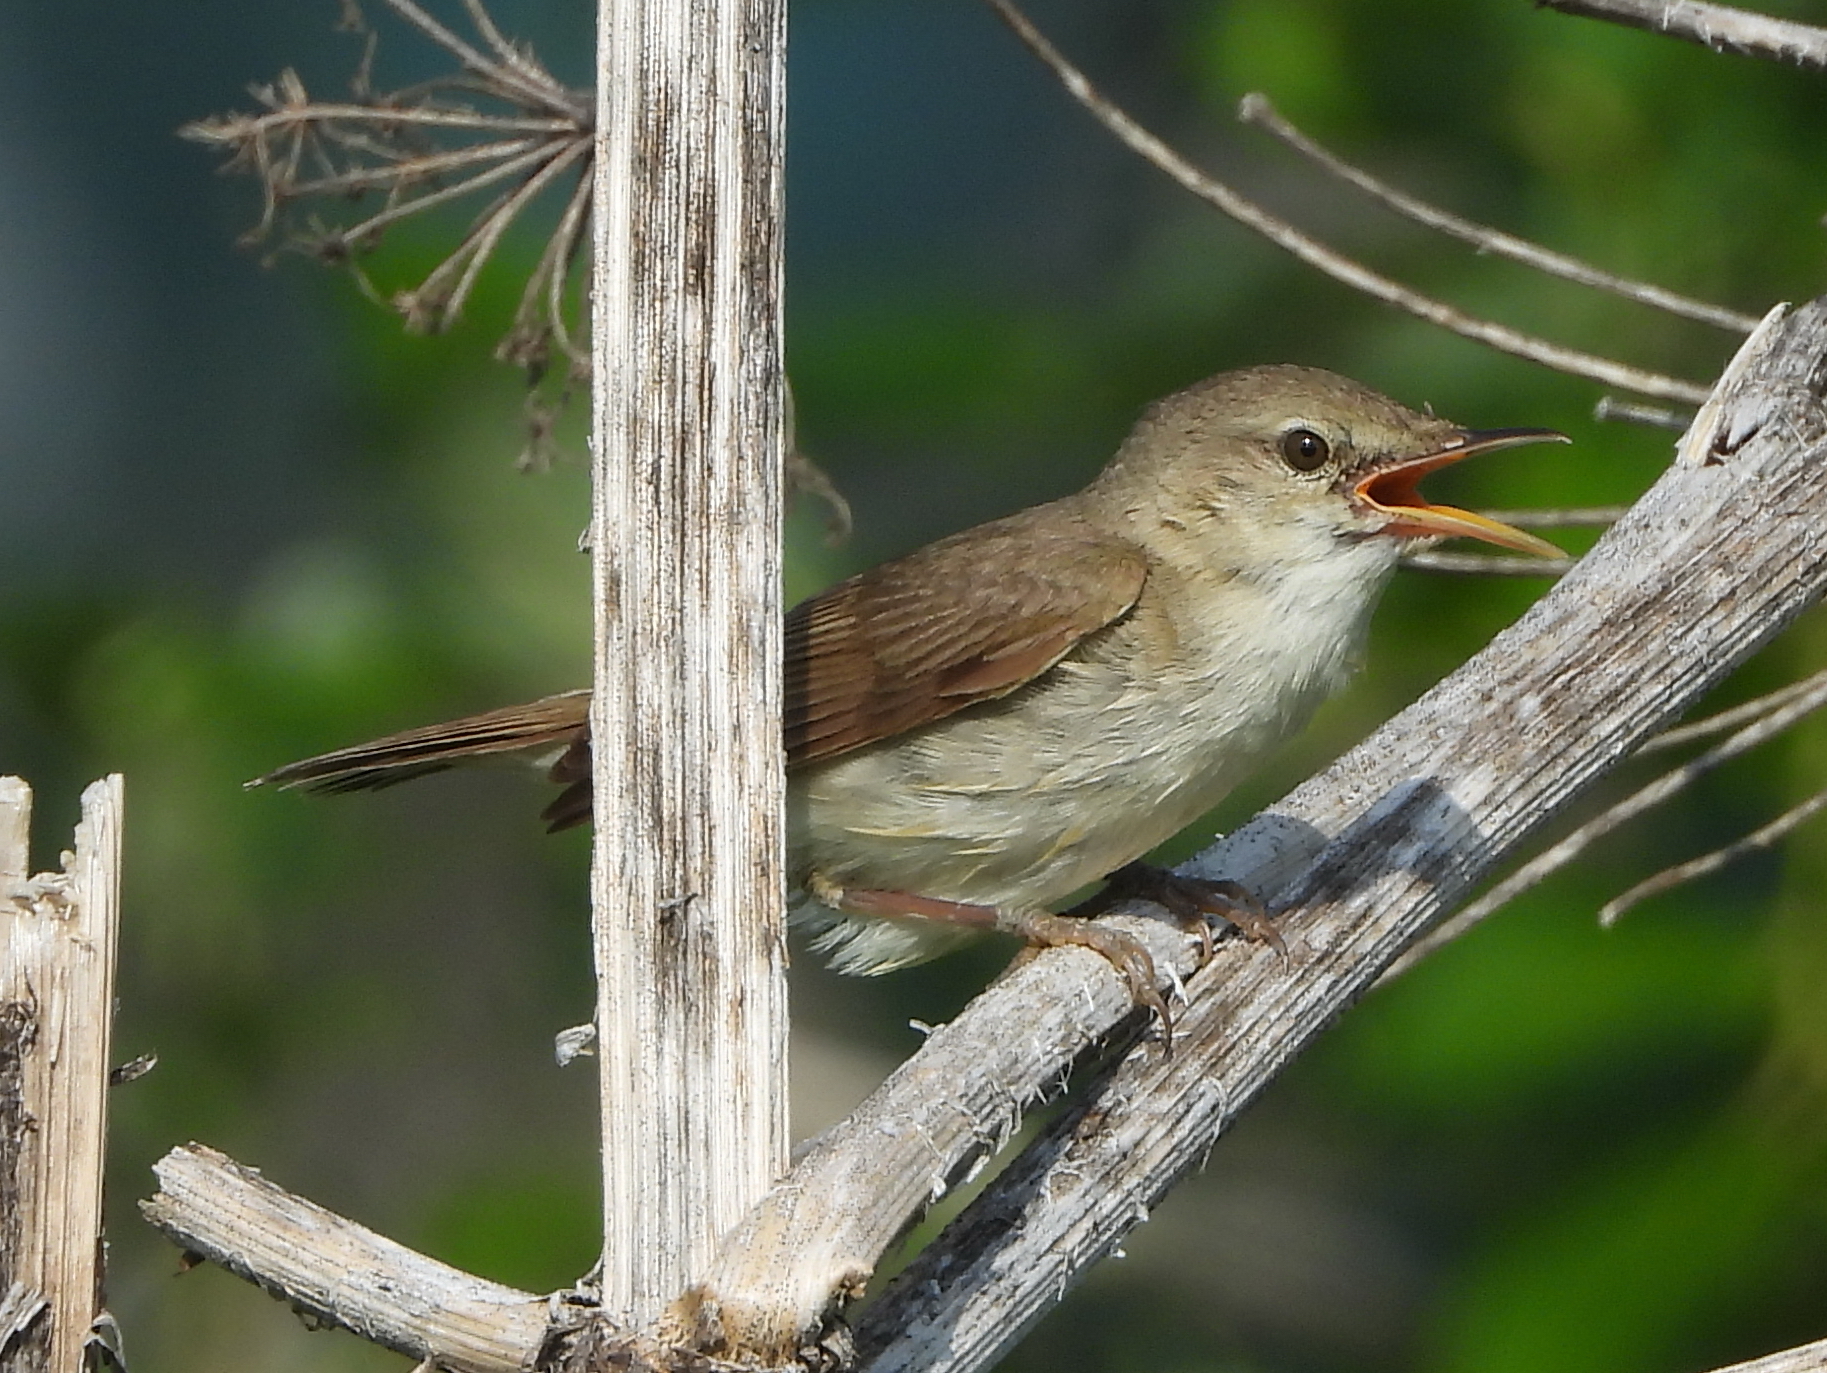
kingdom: Animalia
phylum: Chordata
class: Aves
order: Passeriformes
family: Acrocephalidae
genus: Acrocephalus
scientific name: Acrocephalus dumetorum
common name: Blyth's reed warbler
